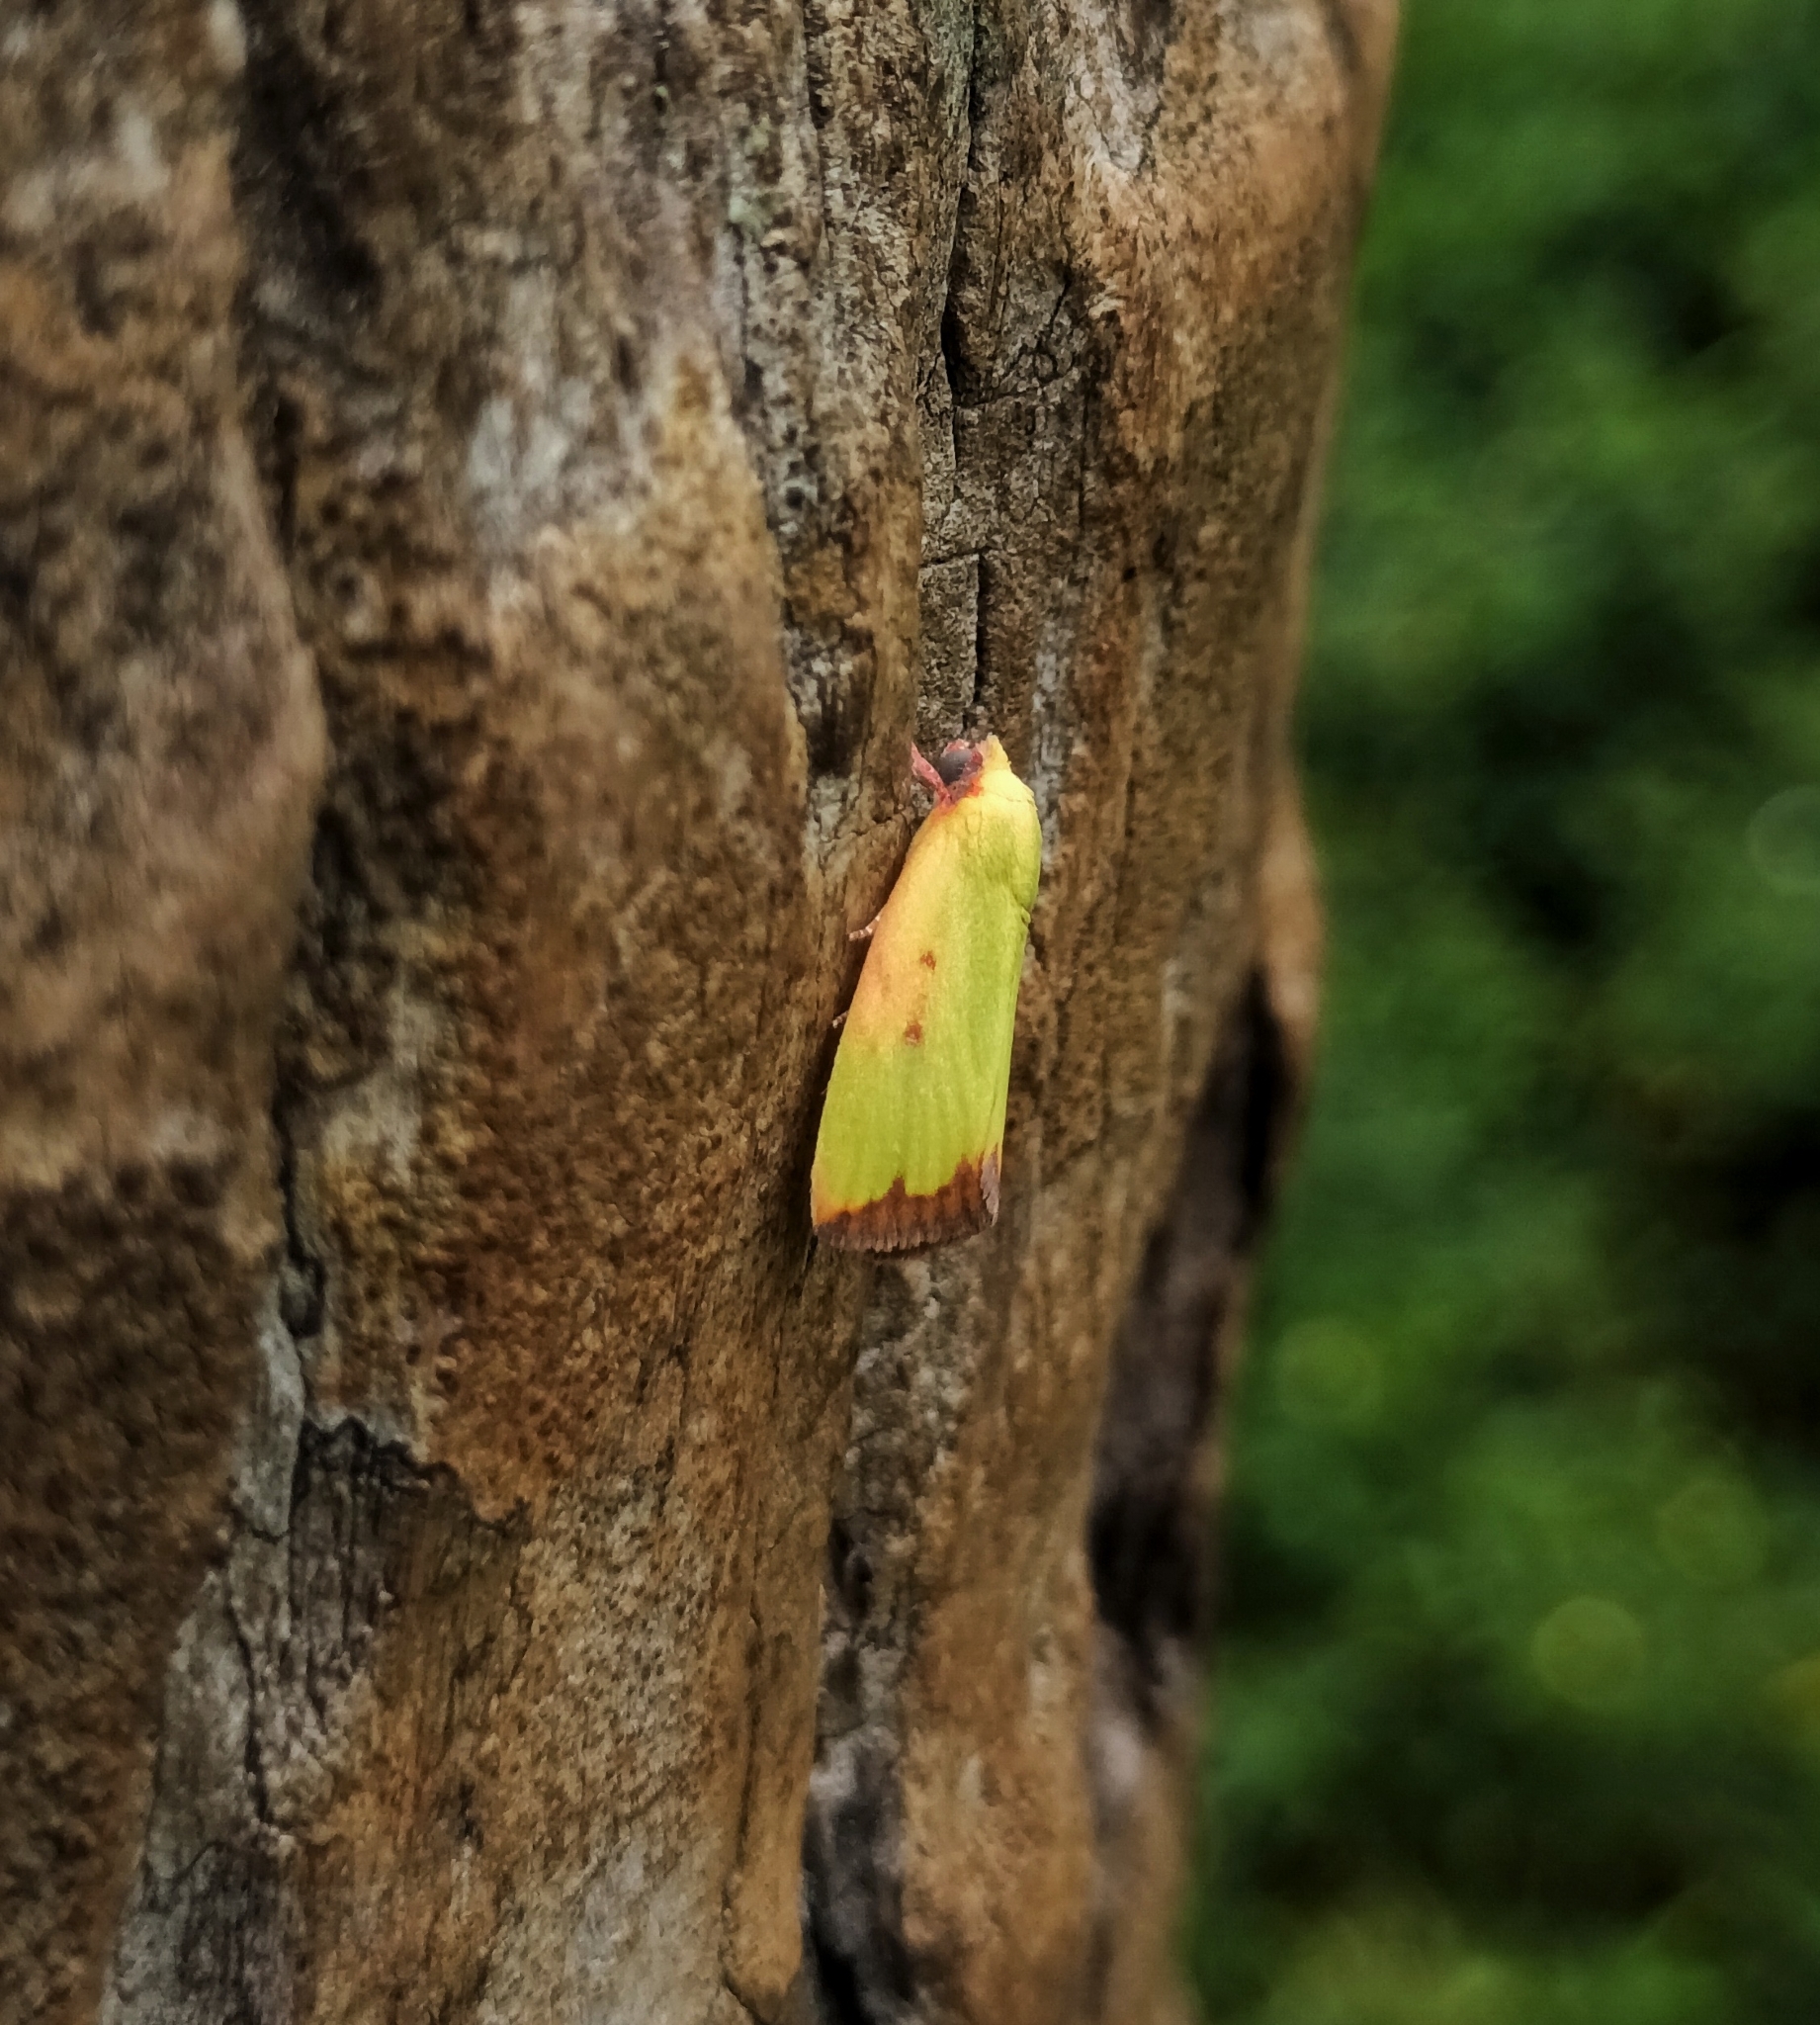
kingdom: Animalia
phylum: Arthropoda
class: Insecta
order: Lepidoptera
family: Nolidae
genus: Earias
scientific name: Earias cupreoviridis
